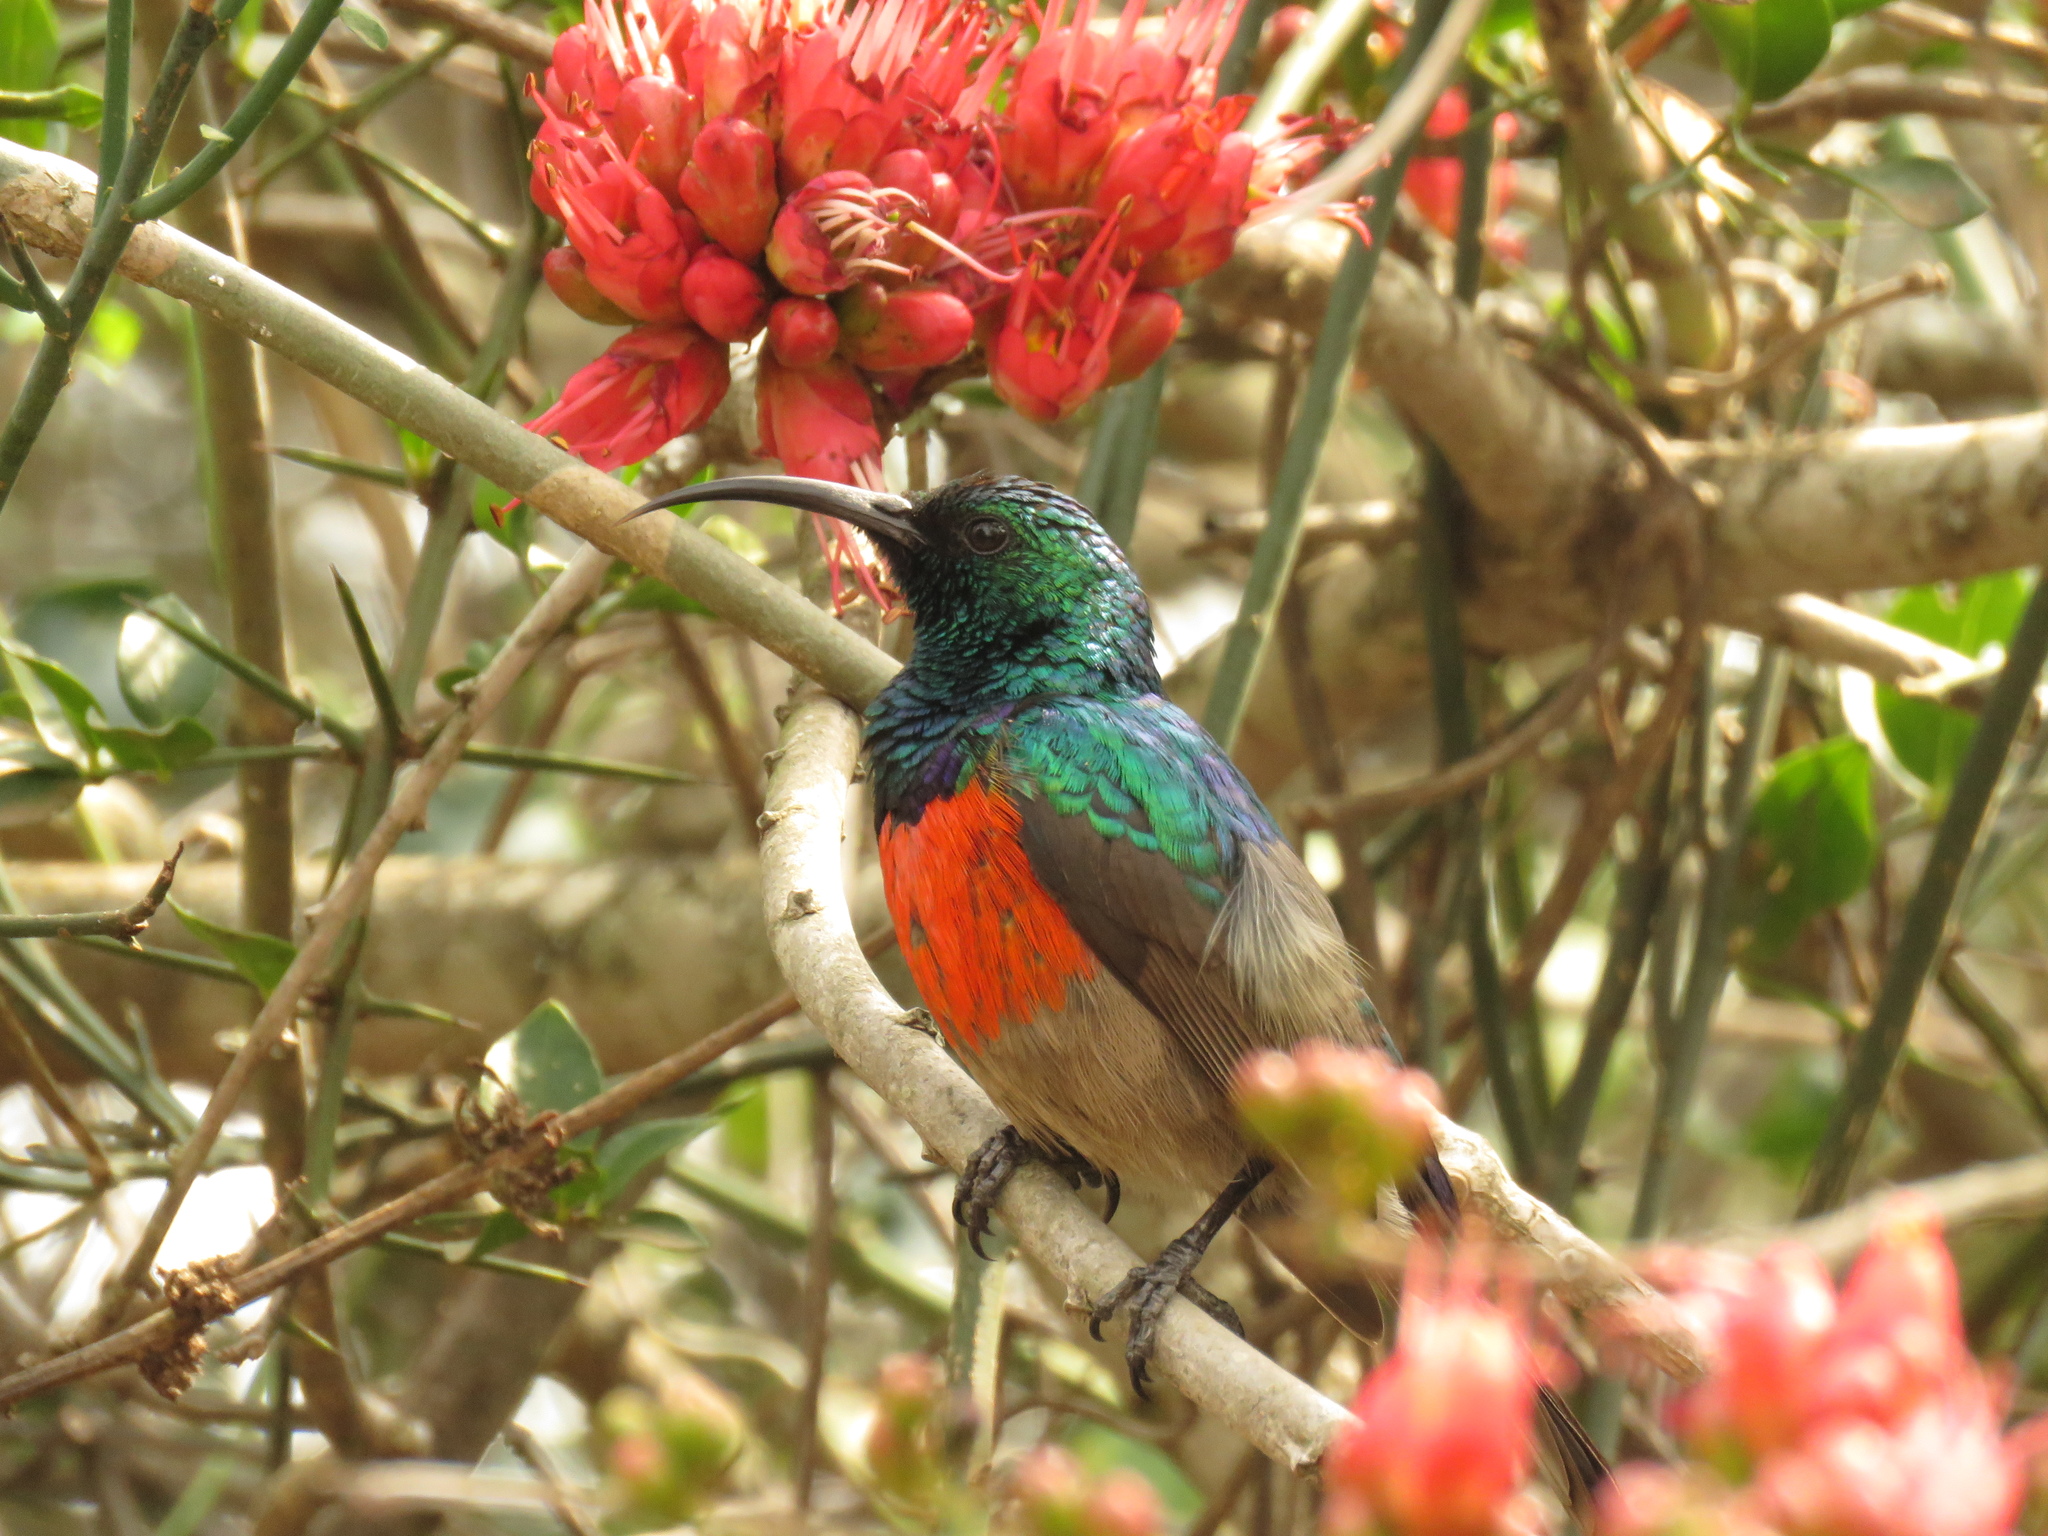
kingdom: Animalia
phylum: Chordata
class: Aves
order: Passeriformes
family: Nectariniidae
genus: Cinnyris
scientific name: Cinnyris afer
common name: Greater double-collared sunbird
